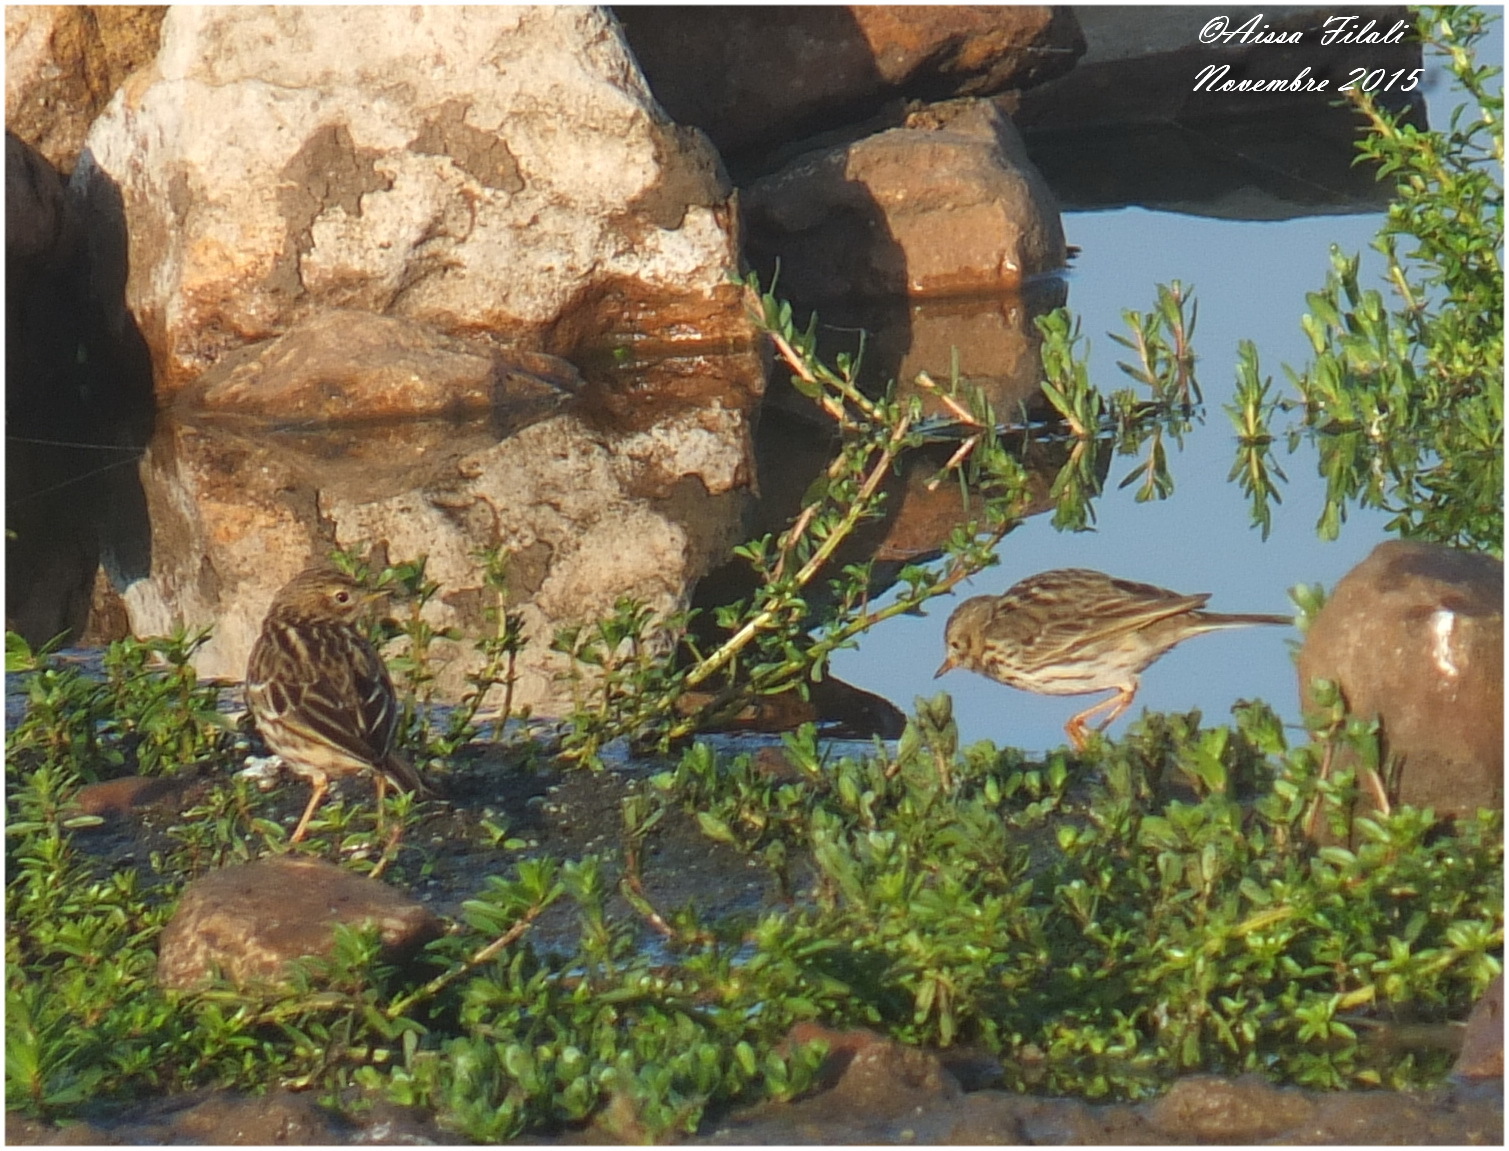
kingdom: Animalia
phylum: Chordata
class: Aves
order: Passeriformes
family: Motacillidae
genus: Anthus
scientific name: Anthus cervinus
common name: Red-throated pipit
